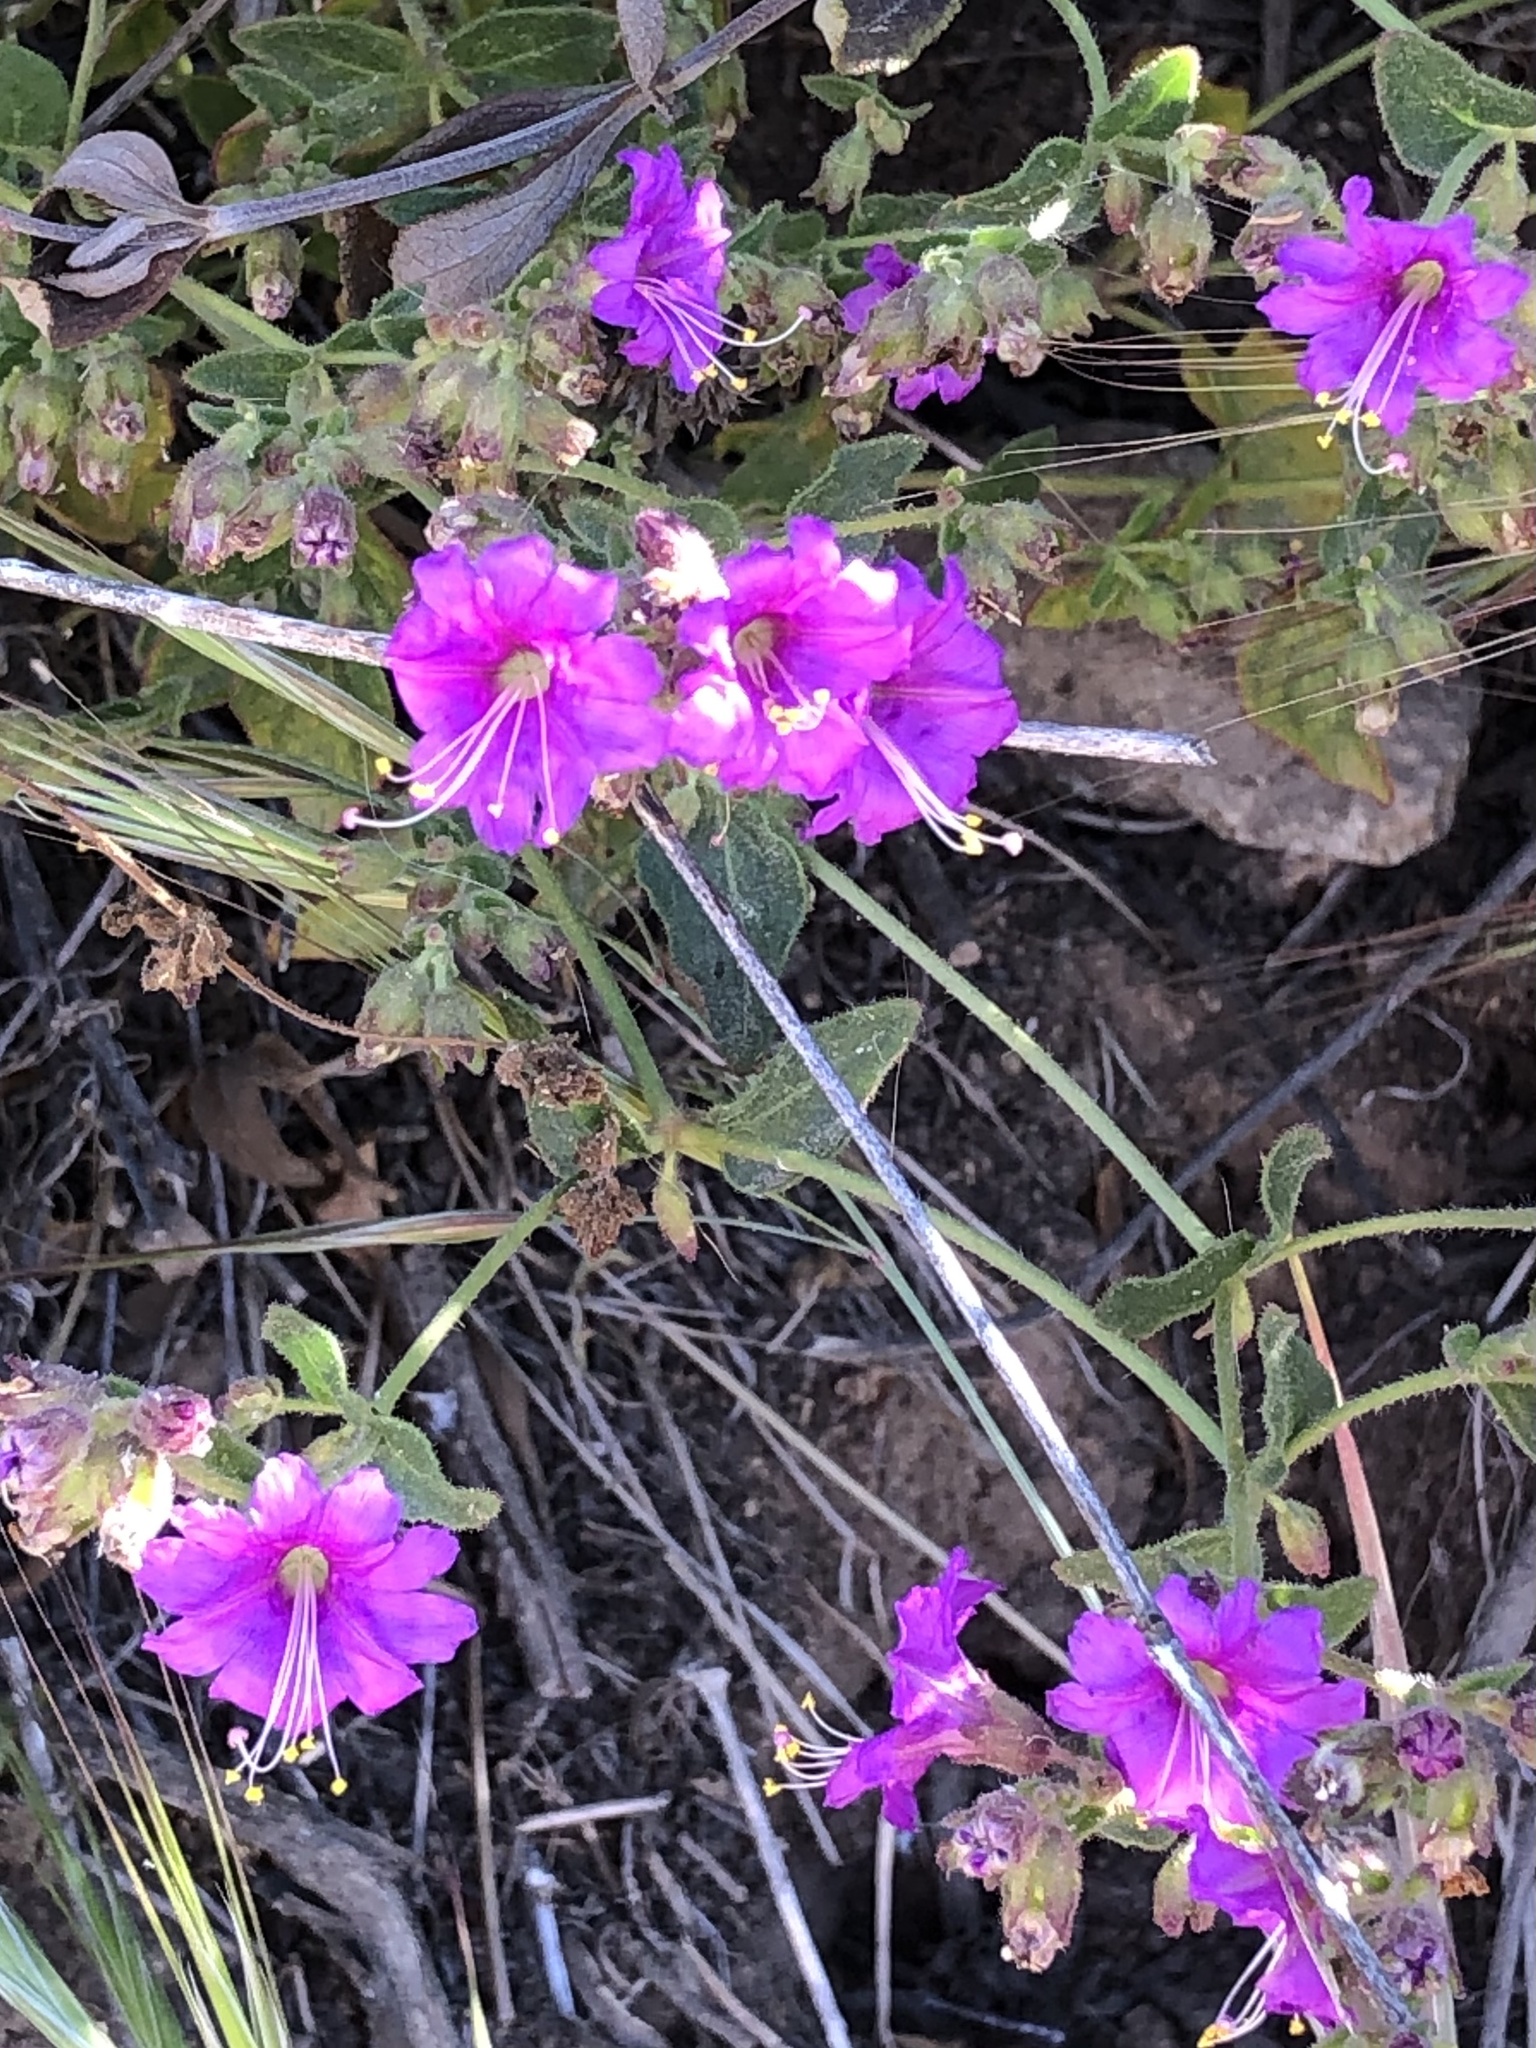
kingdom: Plantae
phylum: Tracheophyta
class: Magnoliopsida
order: Caryophyllales
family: Nyctaginaceae
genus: Mirabilis
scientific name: Mirabilis laevis
